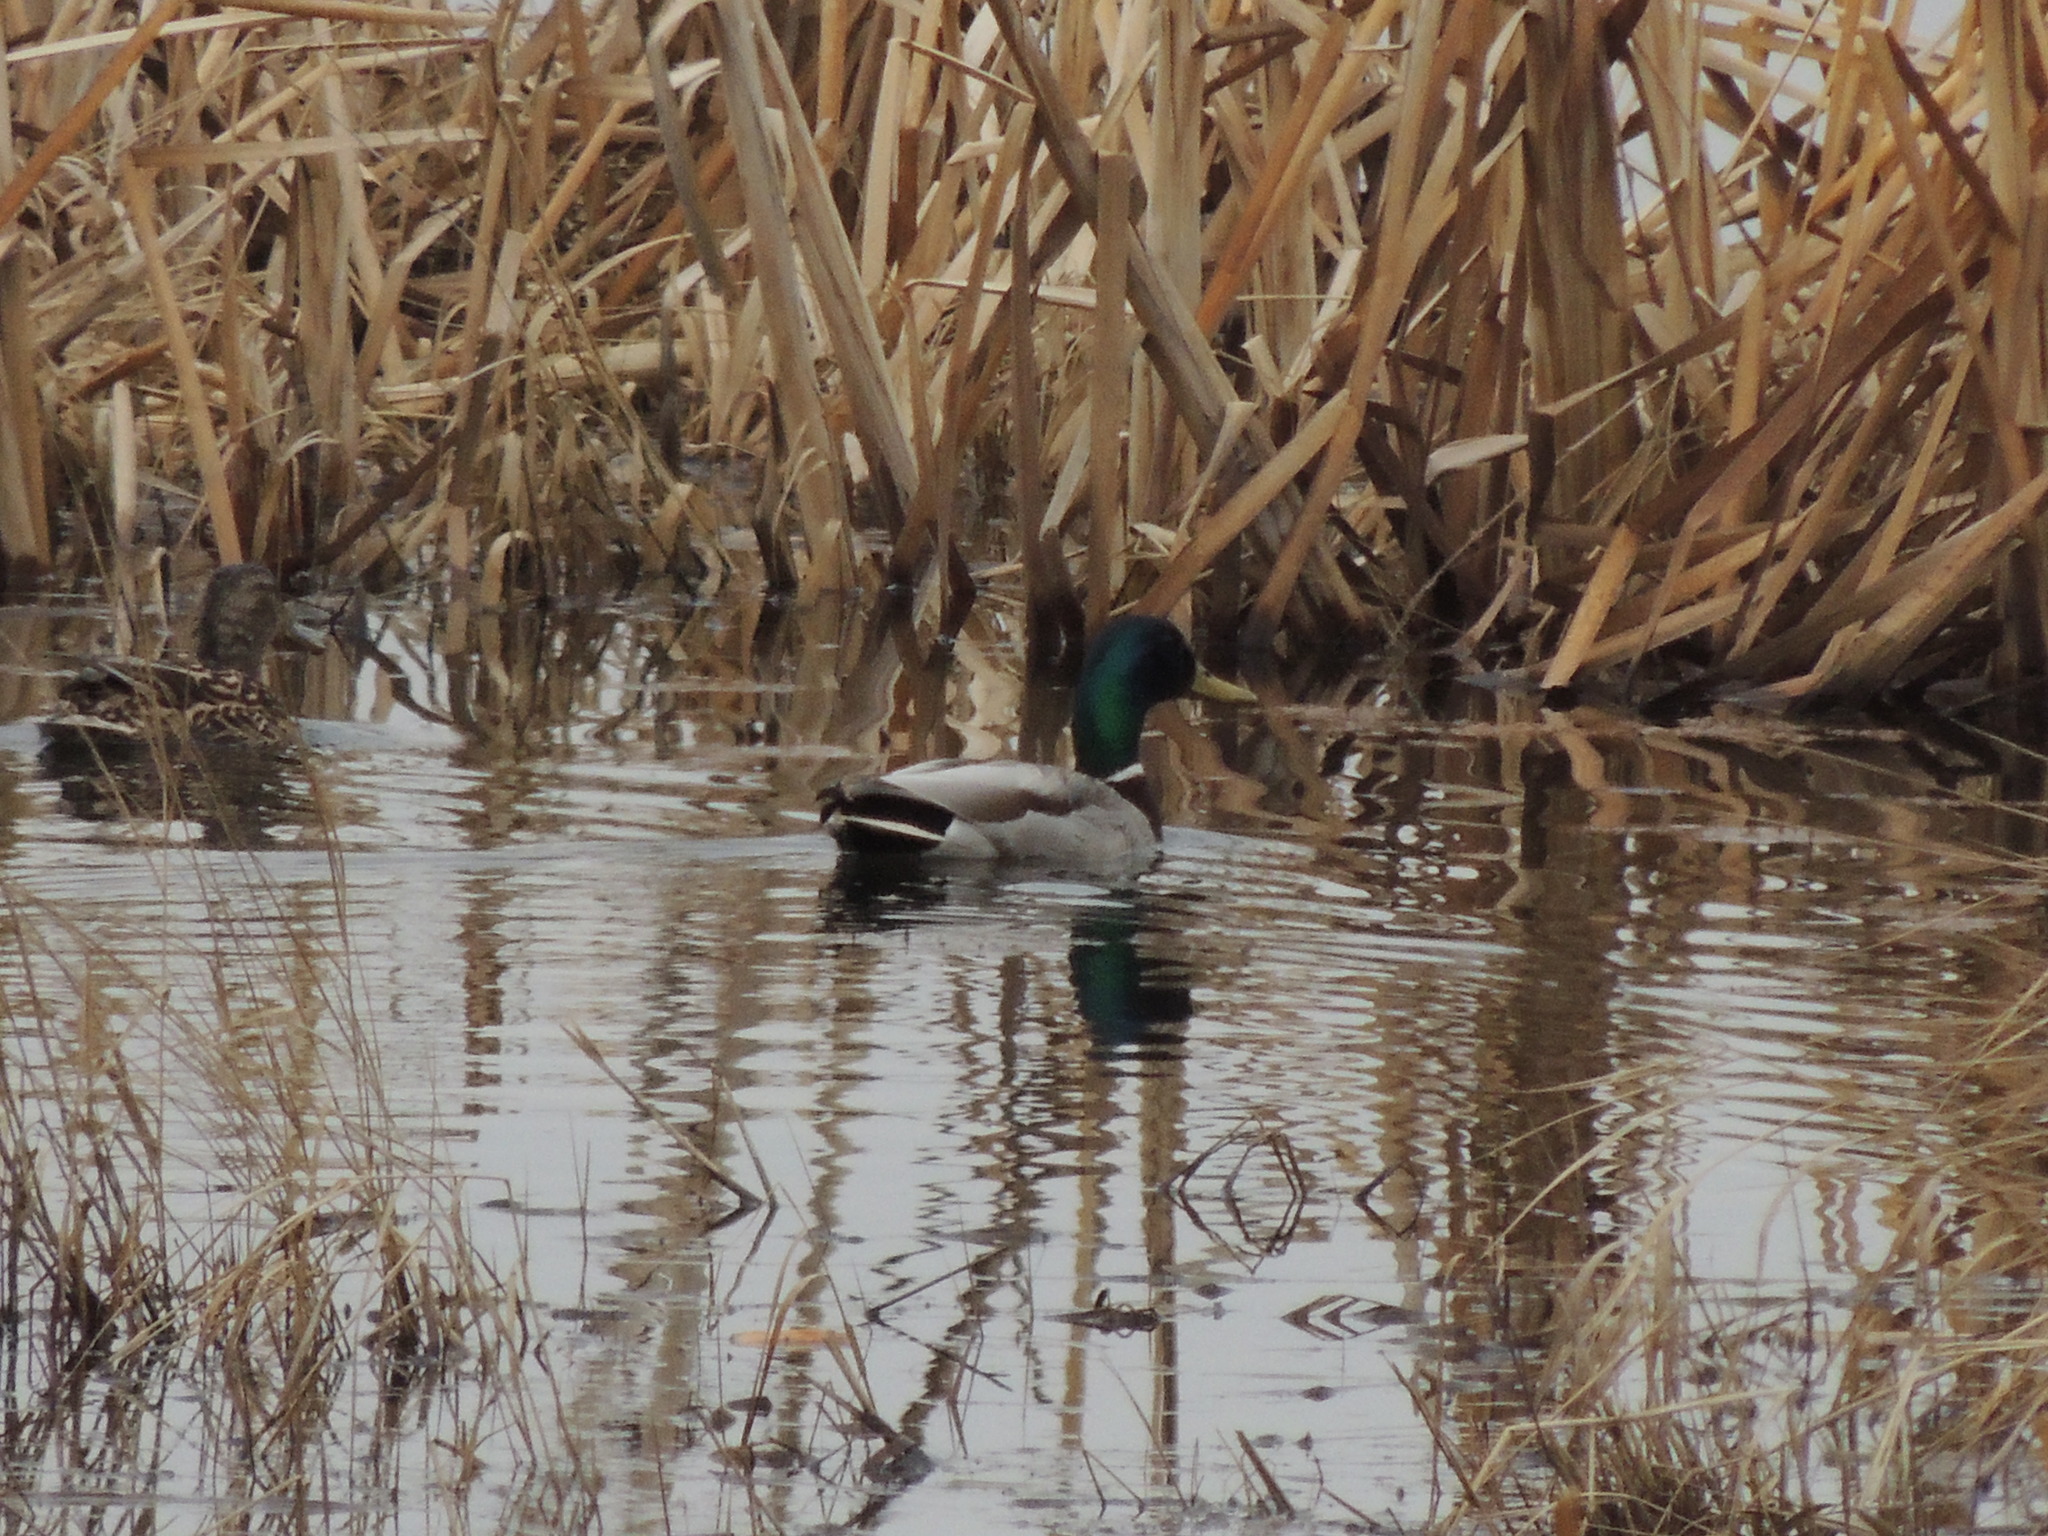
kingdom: Animalia
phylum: Chordata
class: Aves
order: Anseriformes
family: Anatidae
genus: Anas
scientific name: Anas platyrhynchos
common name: Mallard
